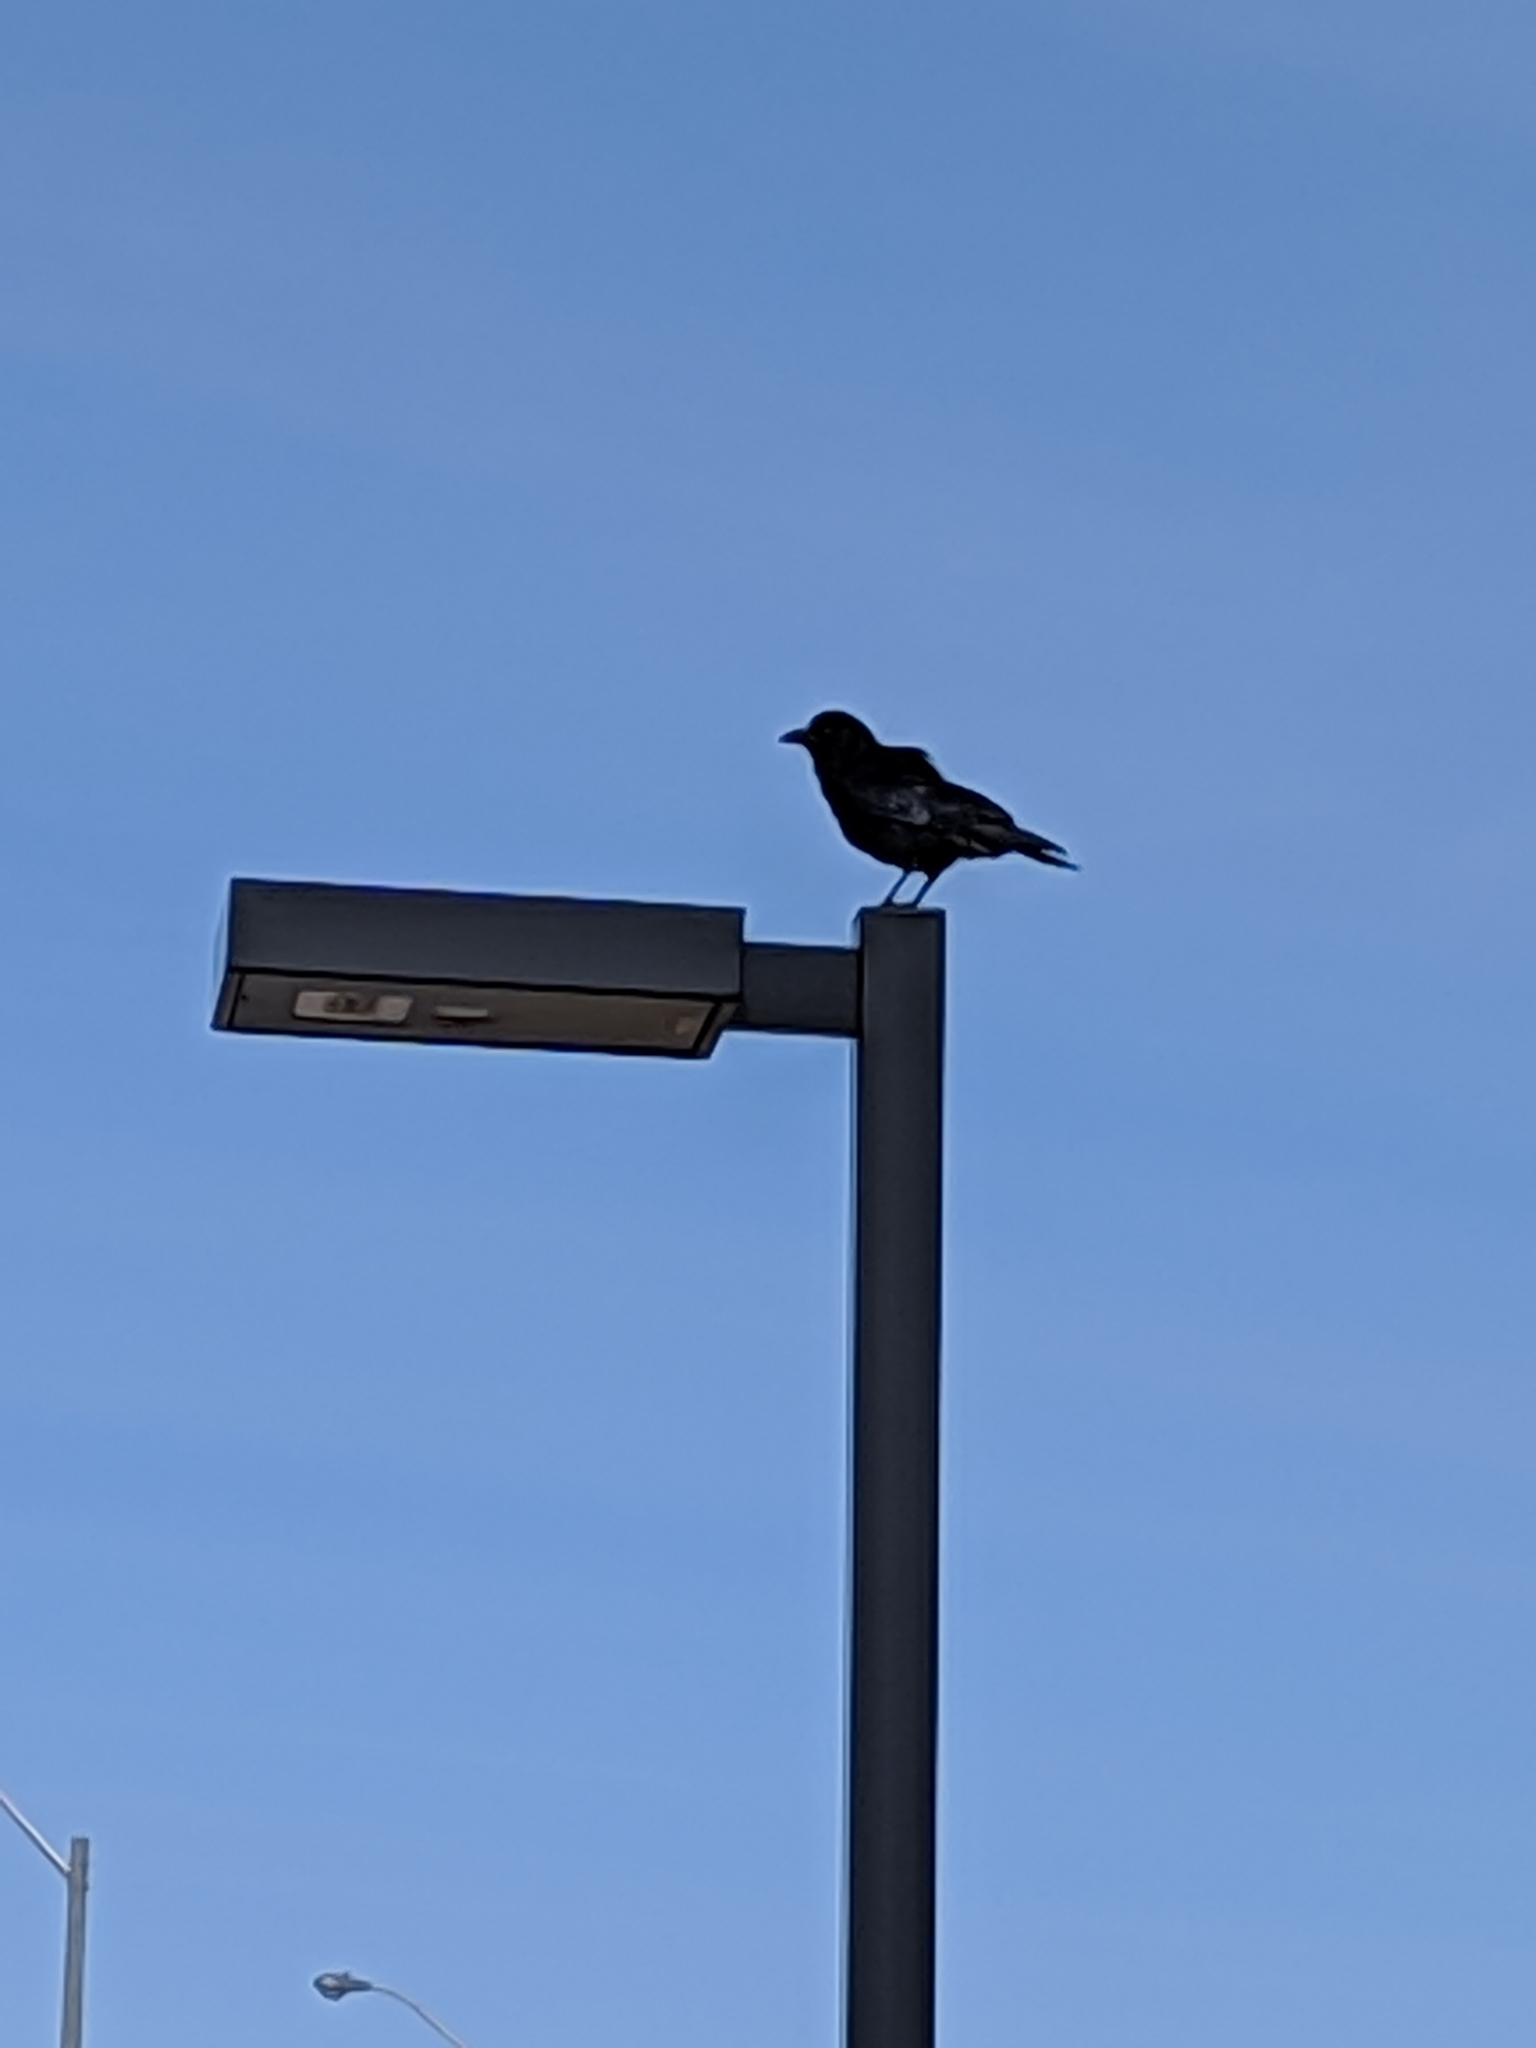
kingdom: Animalia
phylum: Chordata
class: Aves
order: Passeriformes
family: Corvidae
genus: Corvus
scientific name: Corvus brachyrhynchos
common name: American crow
